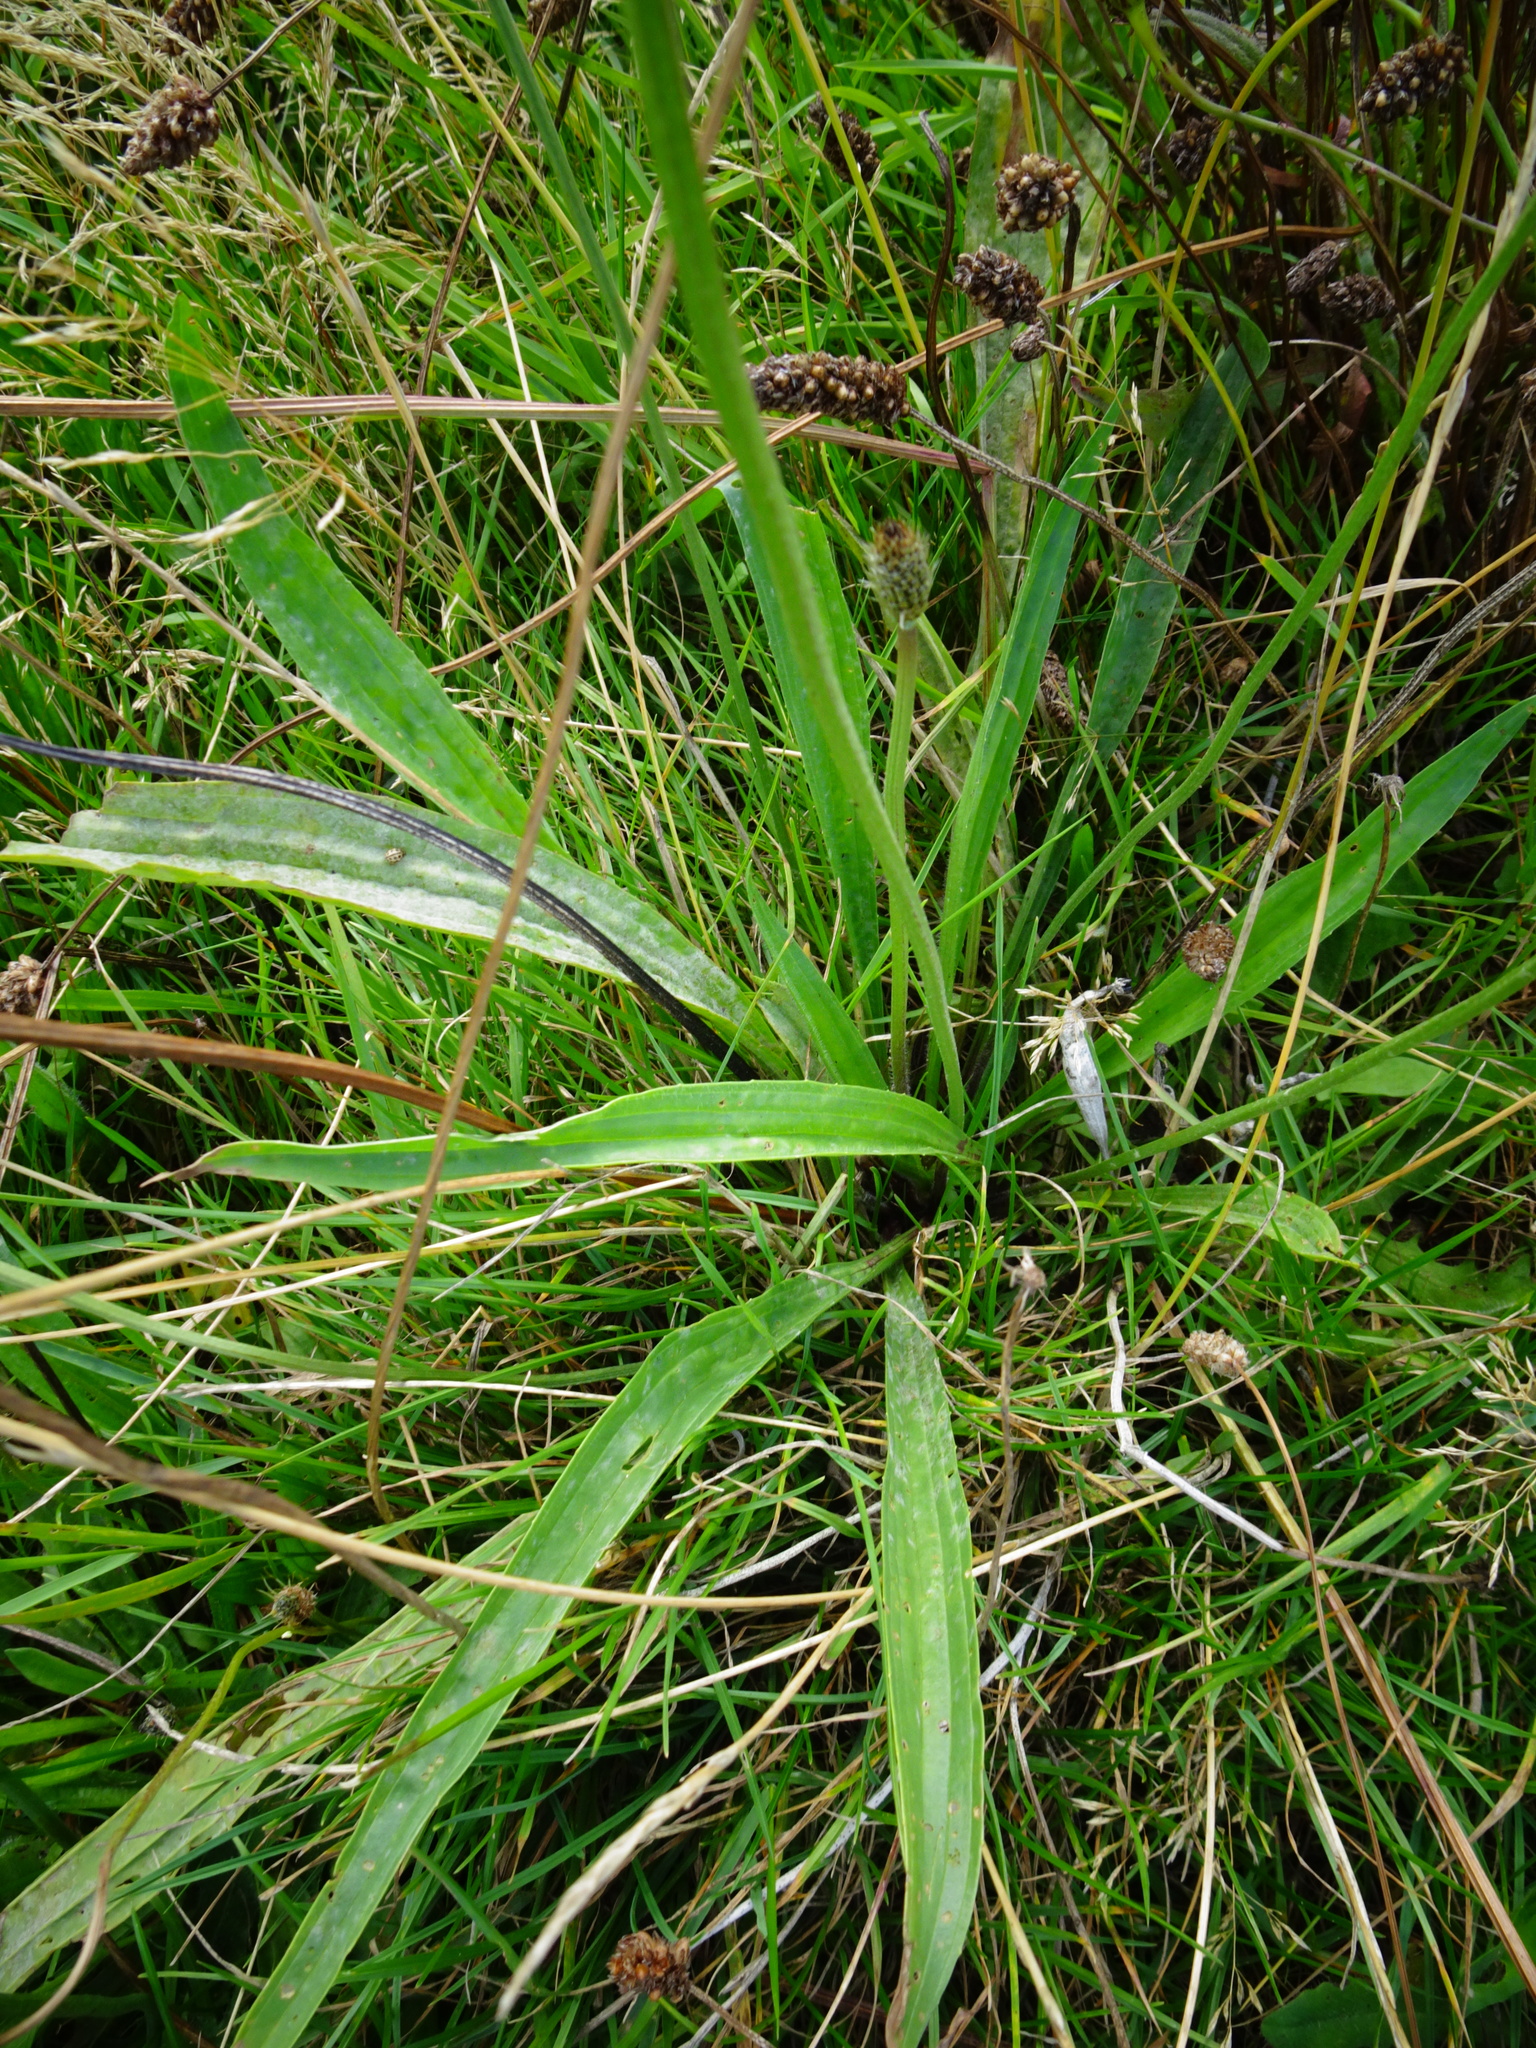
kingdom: Plantae
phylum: Tracheophyta
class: Magnoliopsida
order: Lamiales
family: Plantaginaceae
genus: Plantago
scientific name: Plantago lanceolata
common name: Ribwort plantain
